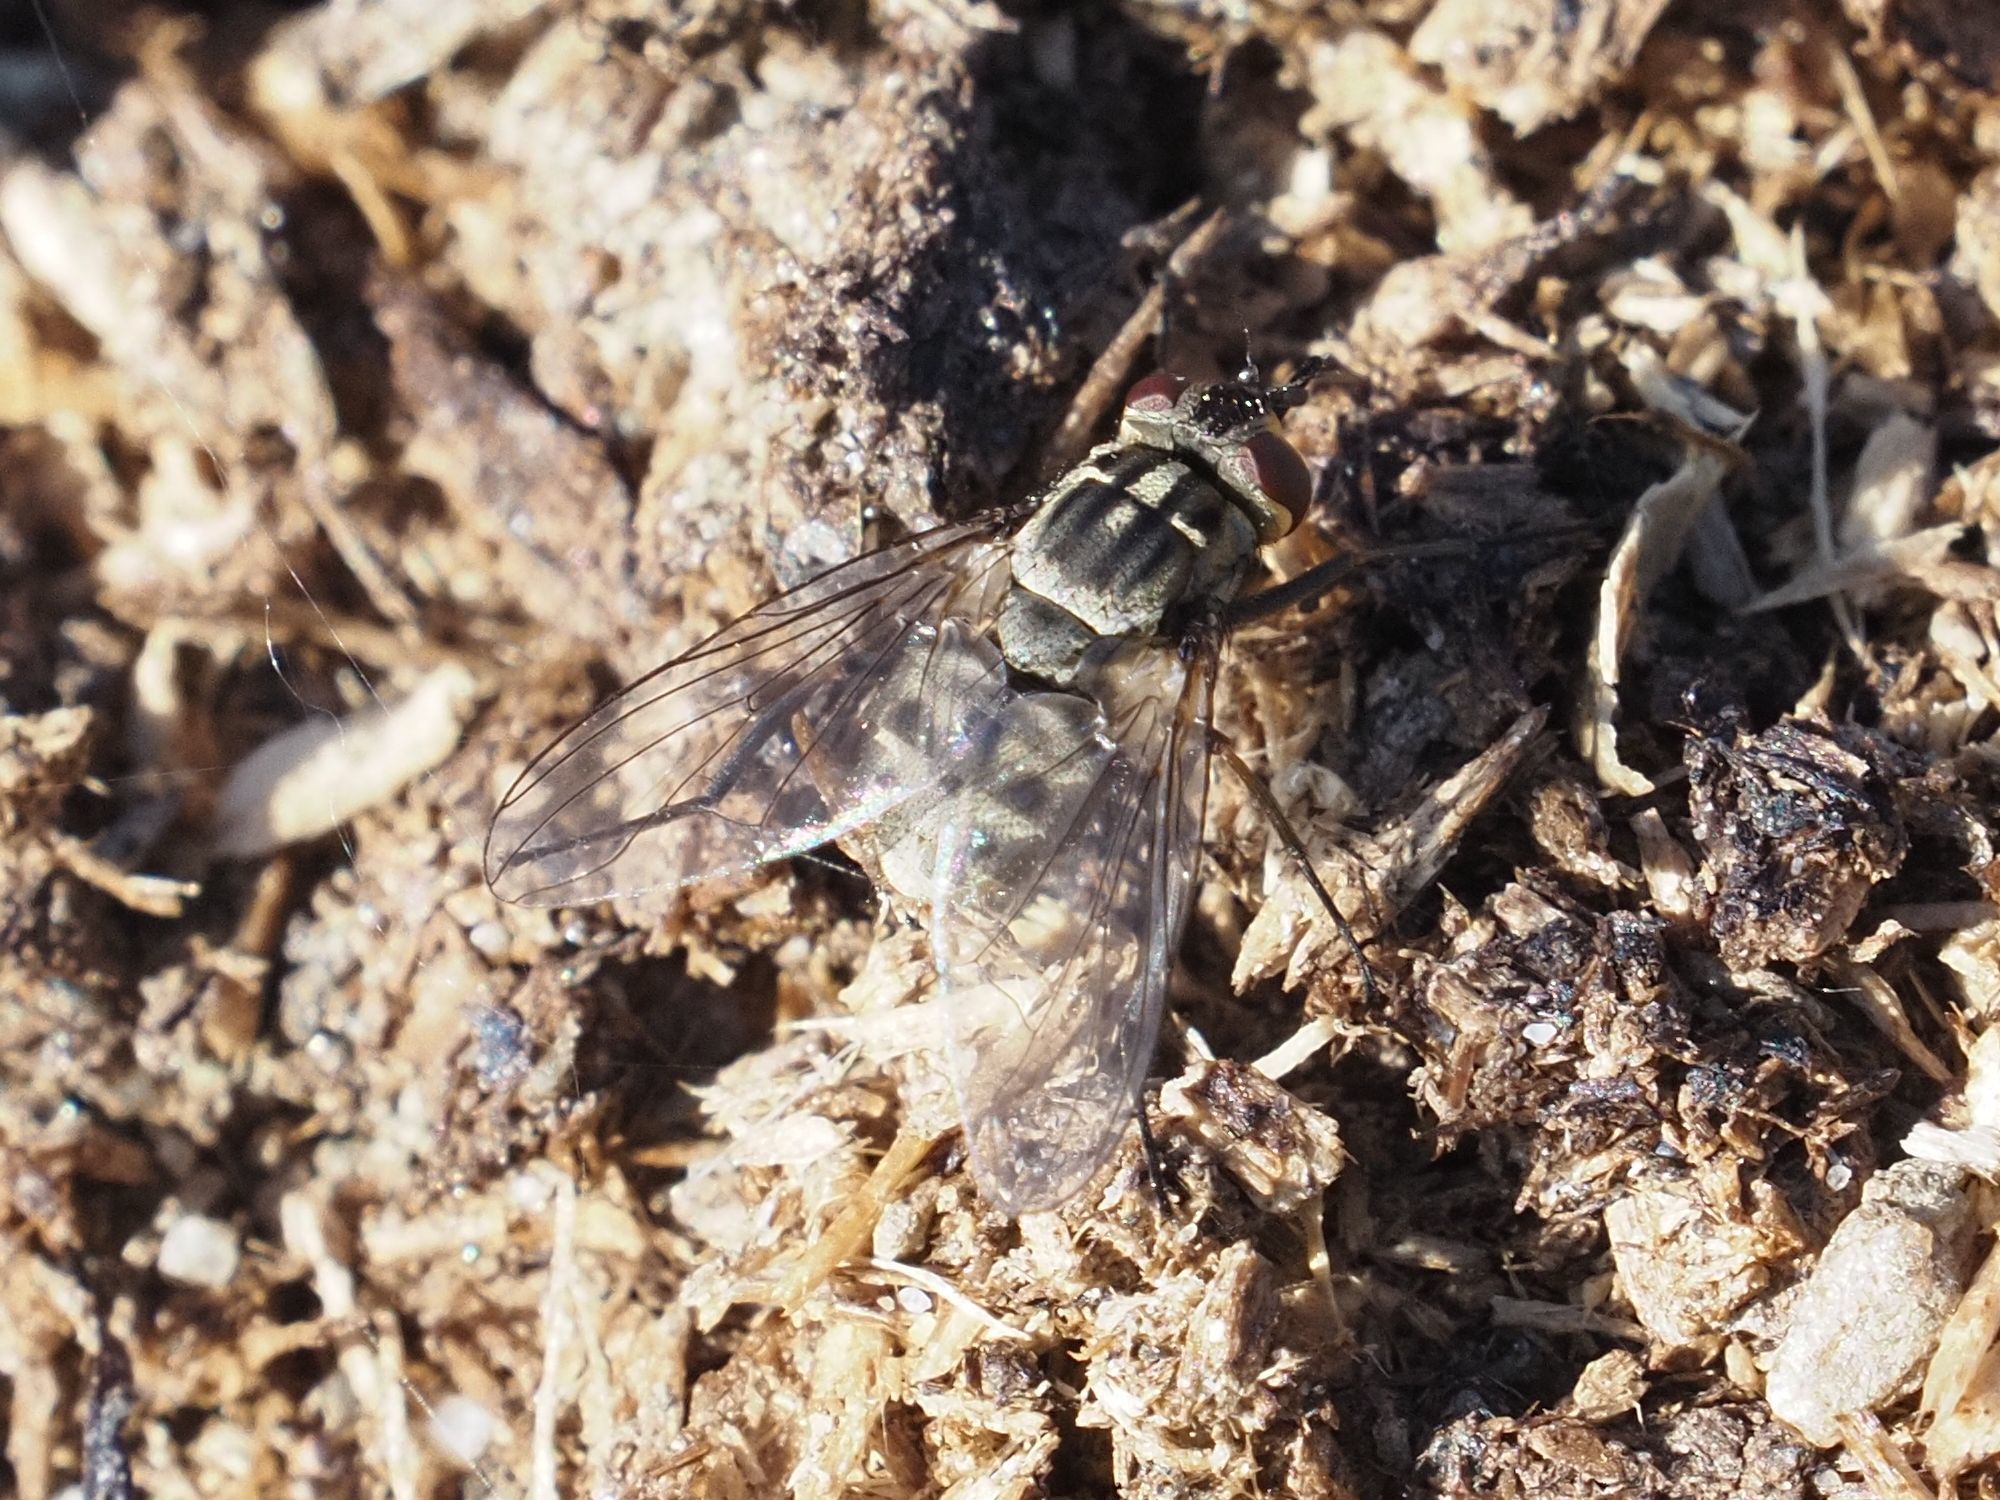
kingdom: Animalia
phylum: Arthropoda
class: Insecta
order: Diptera
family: Muscidae
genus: Stomoxys
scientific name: Stomoxys calcitrans
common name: Stable fly
